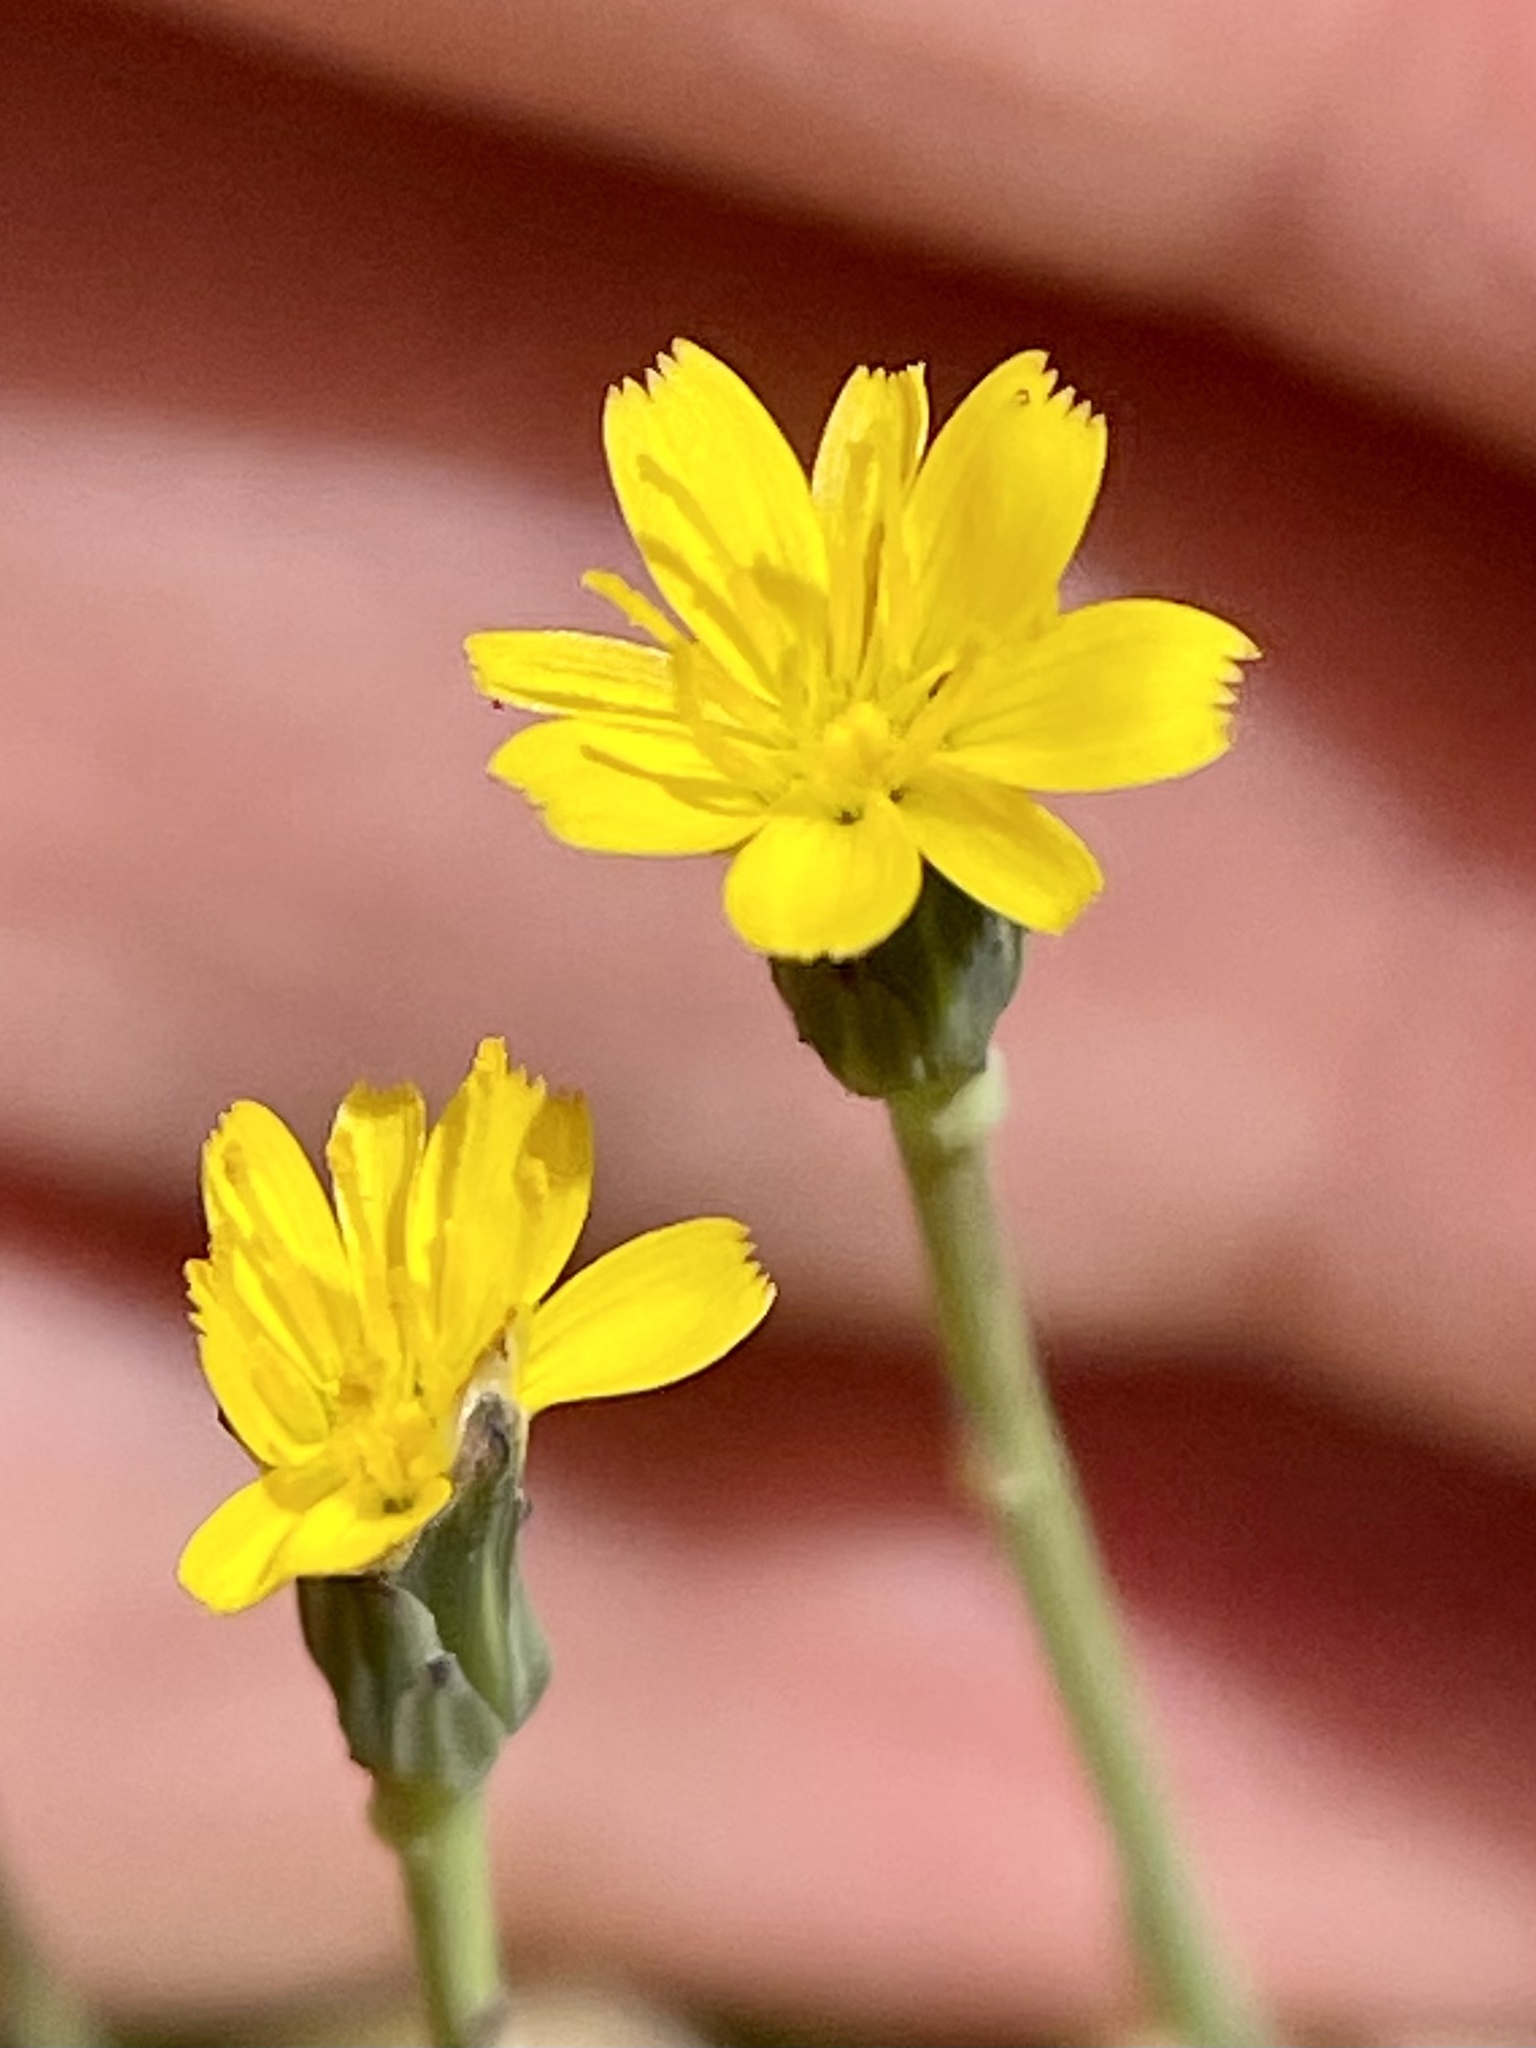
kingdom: Plantae
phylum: Tracheophyta
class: Magnoliopsida
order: Asterales
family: Asteraceae
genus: Hypochaeris
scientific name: Hypochaeris glabra
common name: Smooth catsear
